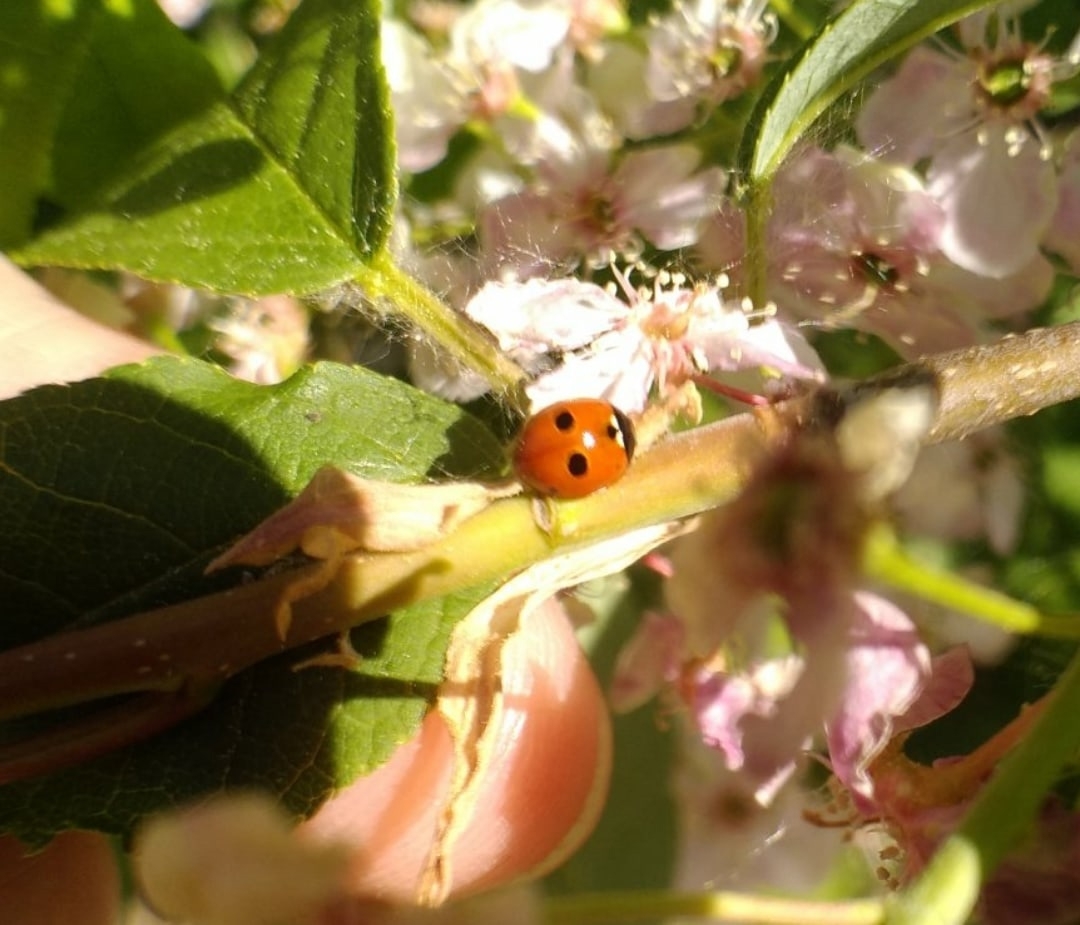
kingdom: Animalia
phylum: Arthropoda
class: Insecta
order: Coleoptera
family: Coccinellidae
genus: Adalia
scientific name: Adalia bipunctata
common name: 2-spot ladybird
